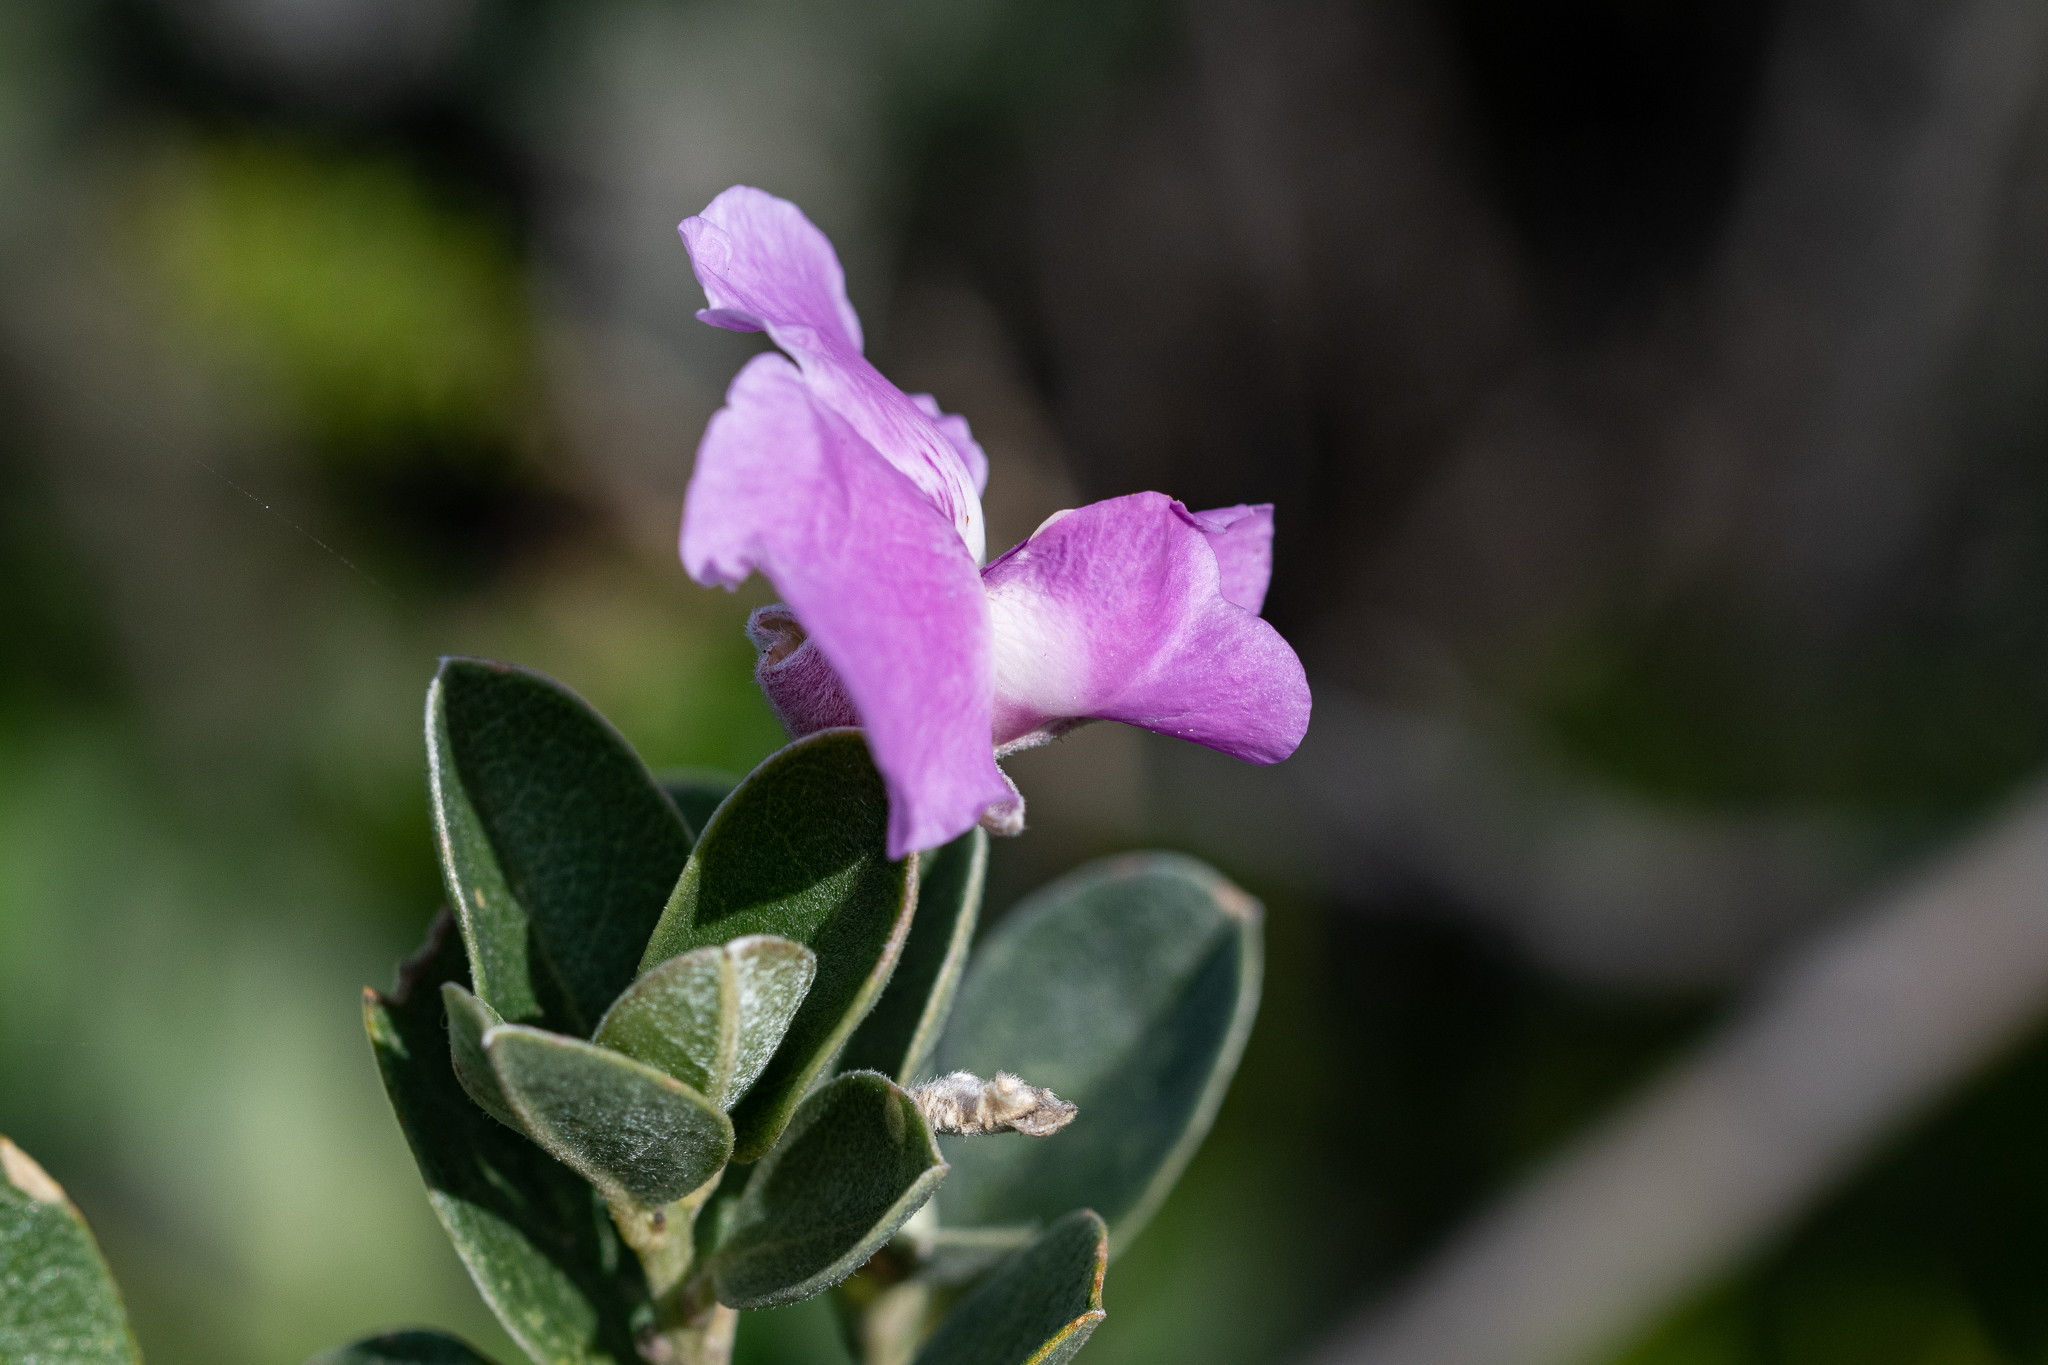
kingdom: Plantae
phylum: Tracheophyta
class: Magnoliopsida
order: Fabales
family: Fabaceae
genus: Podalyria
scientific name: Podalyria calyptrata
